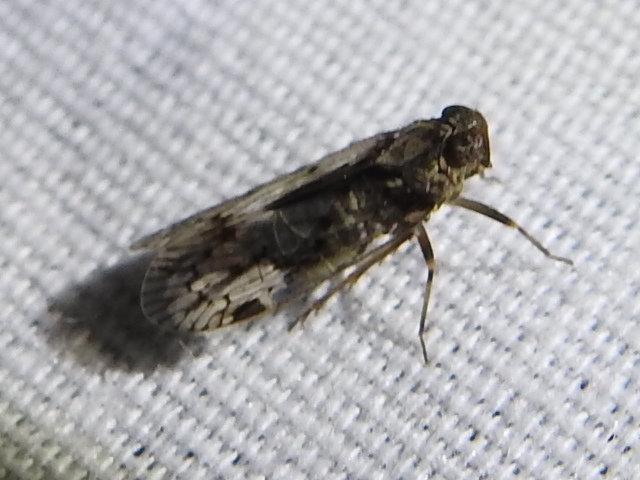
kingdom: Animalia
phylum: Arthropoda
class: Insecta
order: Hemiptera
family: Cixiidae
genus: Melanoliarus
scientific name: Melanoliarus aridus
